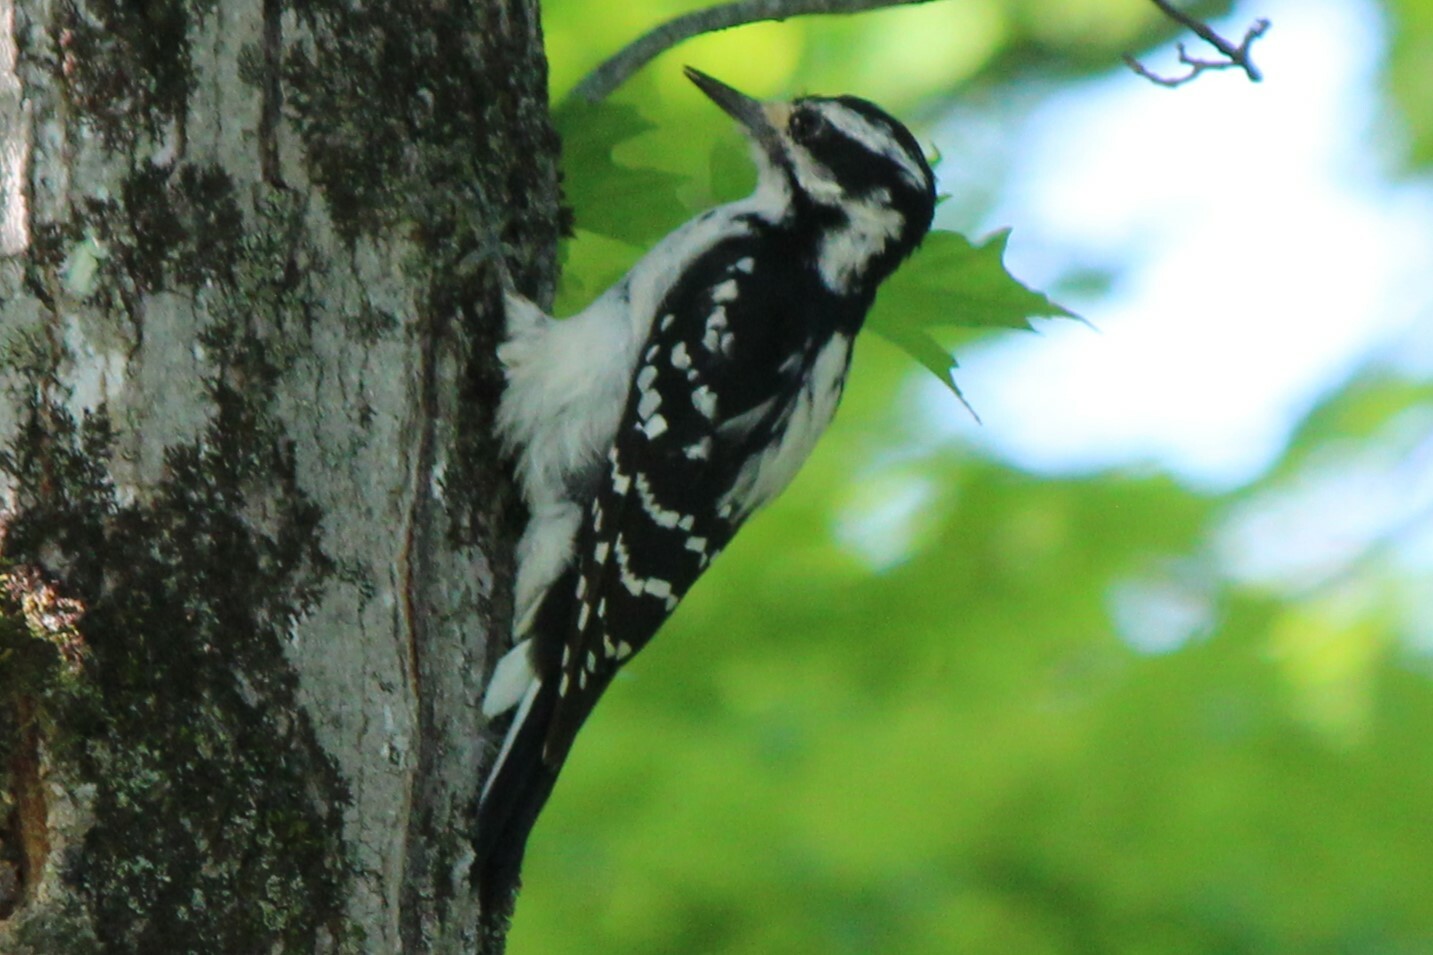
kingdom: Animalia
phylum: Chordata
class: Aves
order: Piciformes
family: Picidae
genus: Leuconotopicus
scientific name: Leuconotopicus villosus
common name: Hairy woodpecker
